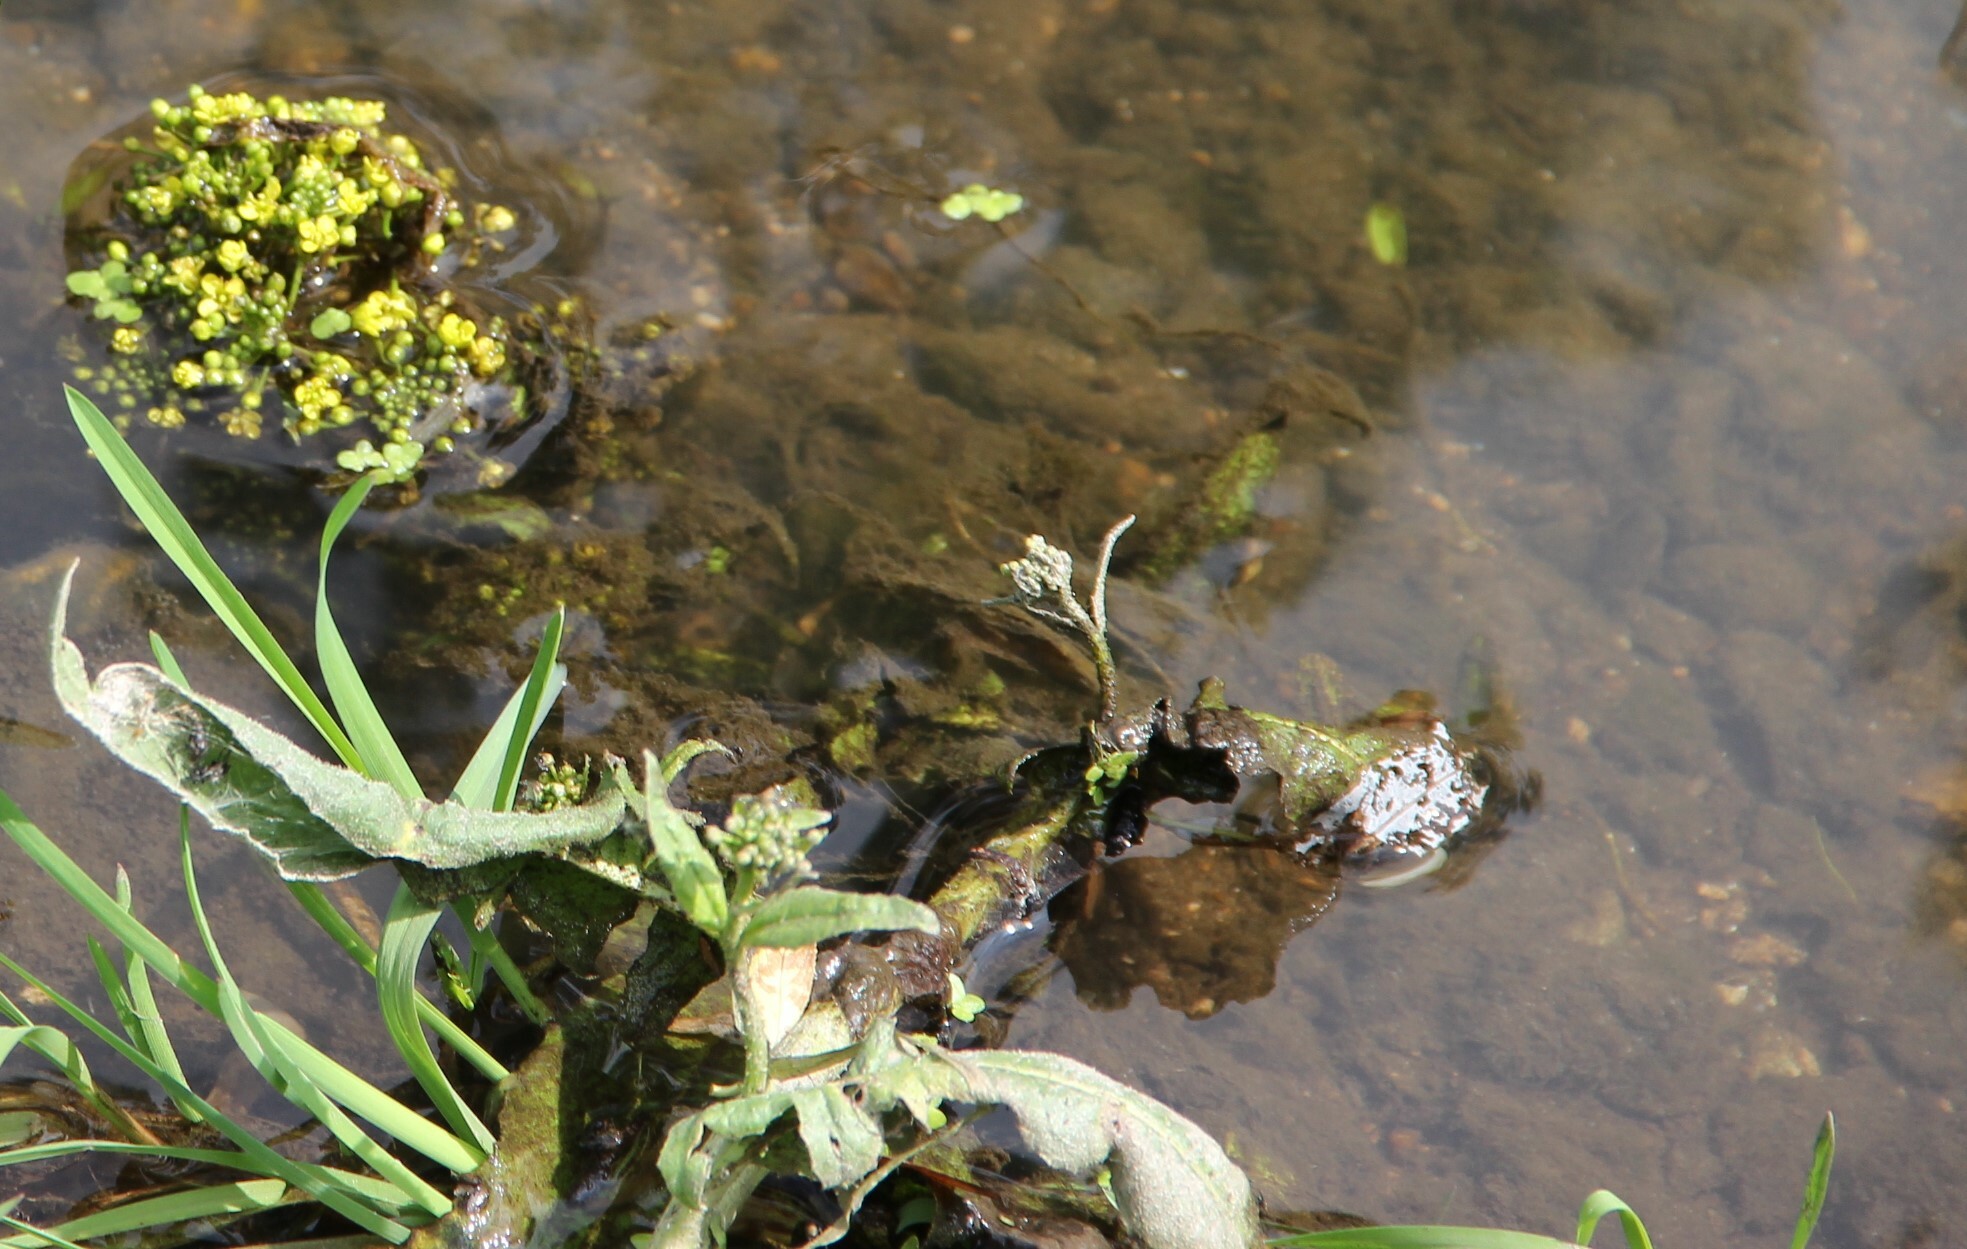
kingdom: Plantae
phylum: Tracheophyta
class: Magnoliopsida
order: Brassicales
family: Brassicaceae
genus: Rorippa
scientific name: Rorippa amphibia
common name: Great yellow-cress
